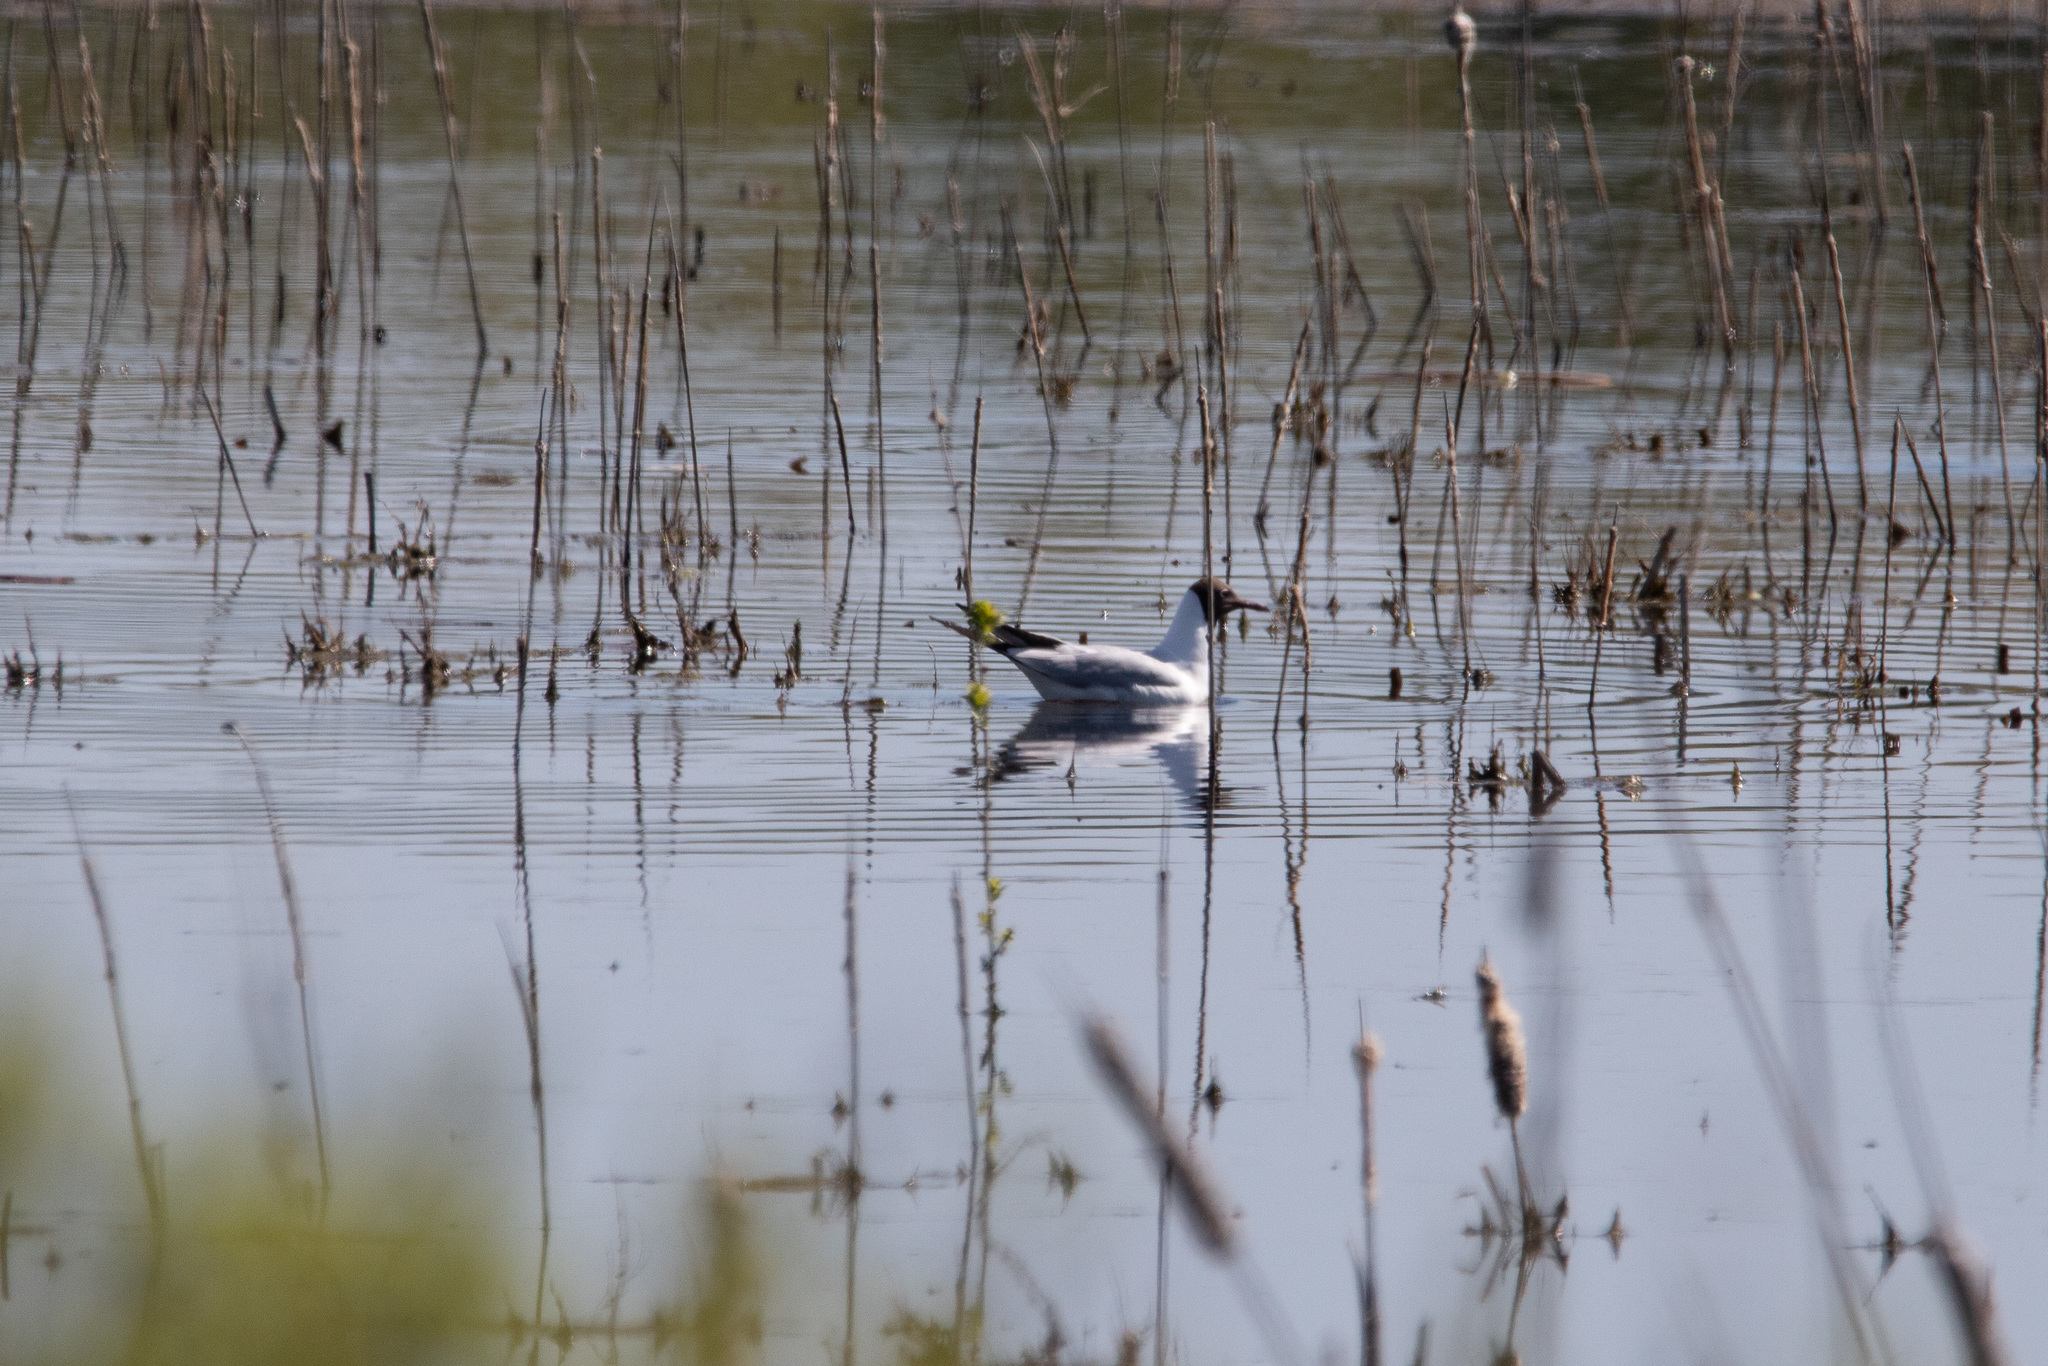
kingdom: Animalia
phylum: Chordata
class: Aves
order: Charadriiformes
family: Laridae
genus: Chroicocephalus
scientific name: Chroicocephalus ridibundus
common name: Black-headed gull
